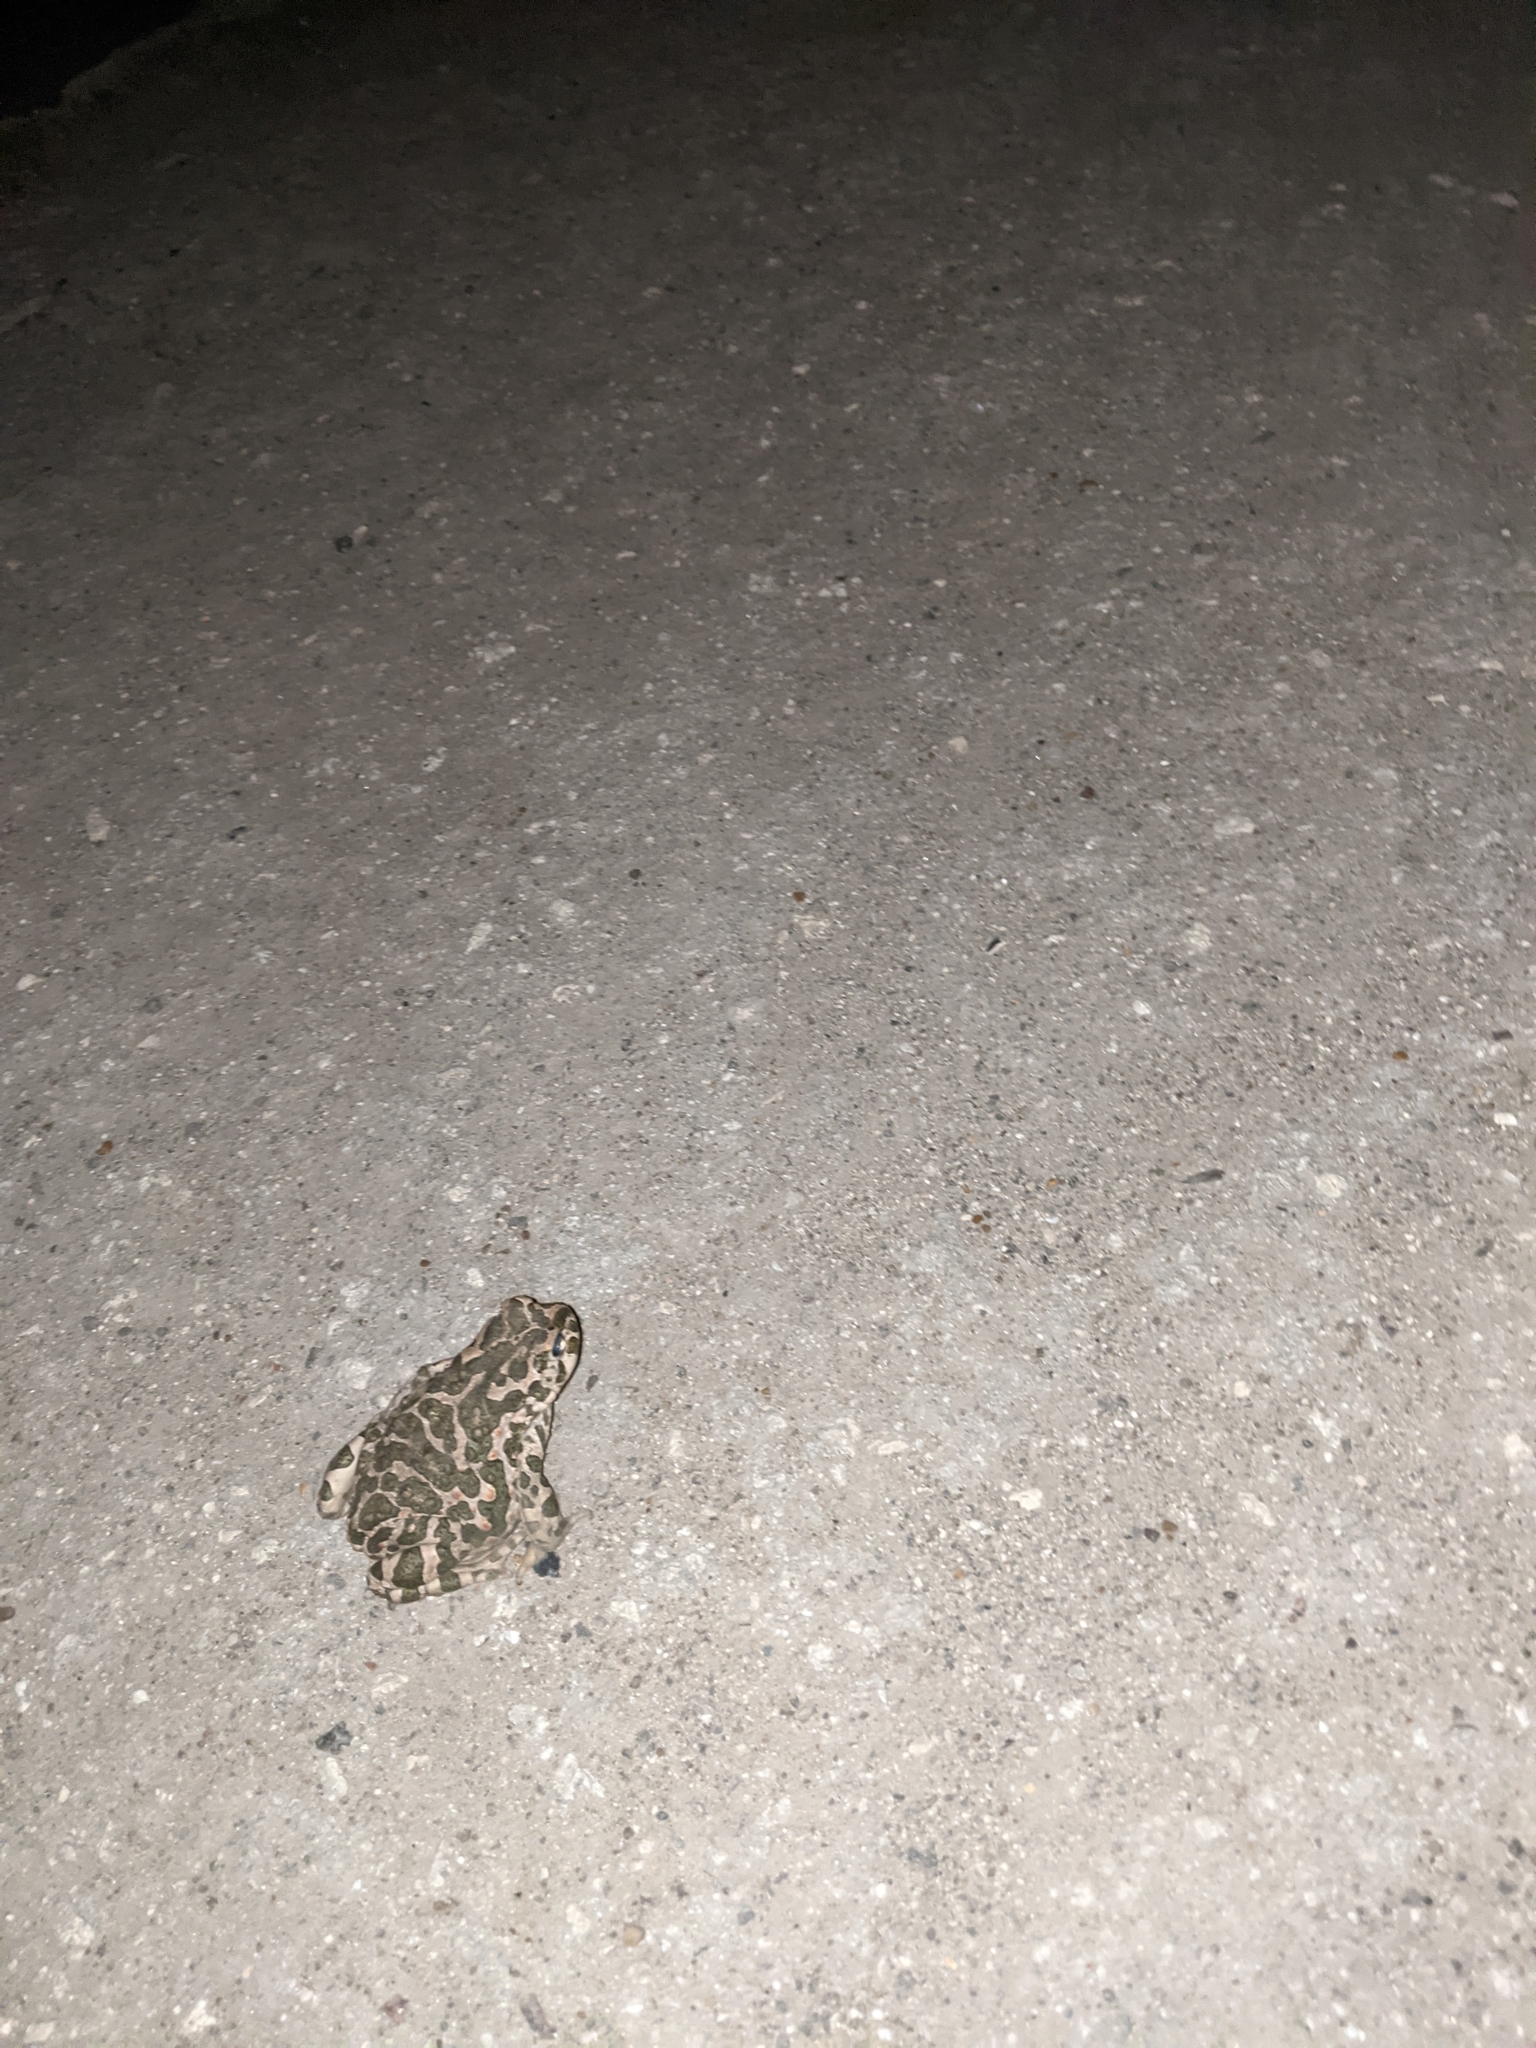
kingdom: Animalia
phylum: Chordata
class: Amphibia
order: Anura
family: Bufonidae
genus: Bufotes
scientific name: Bufotes viridis
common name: European green toad
